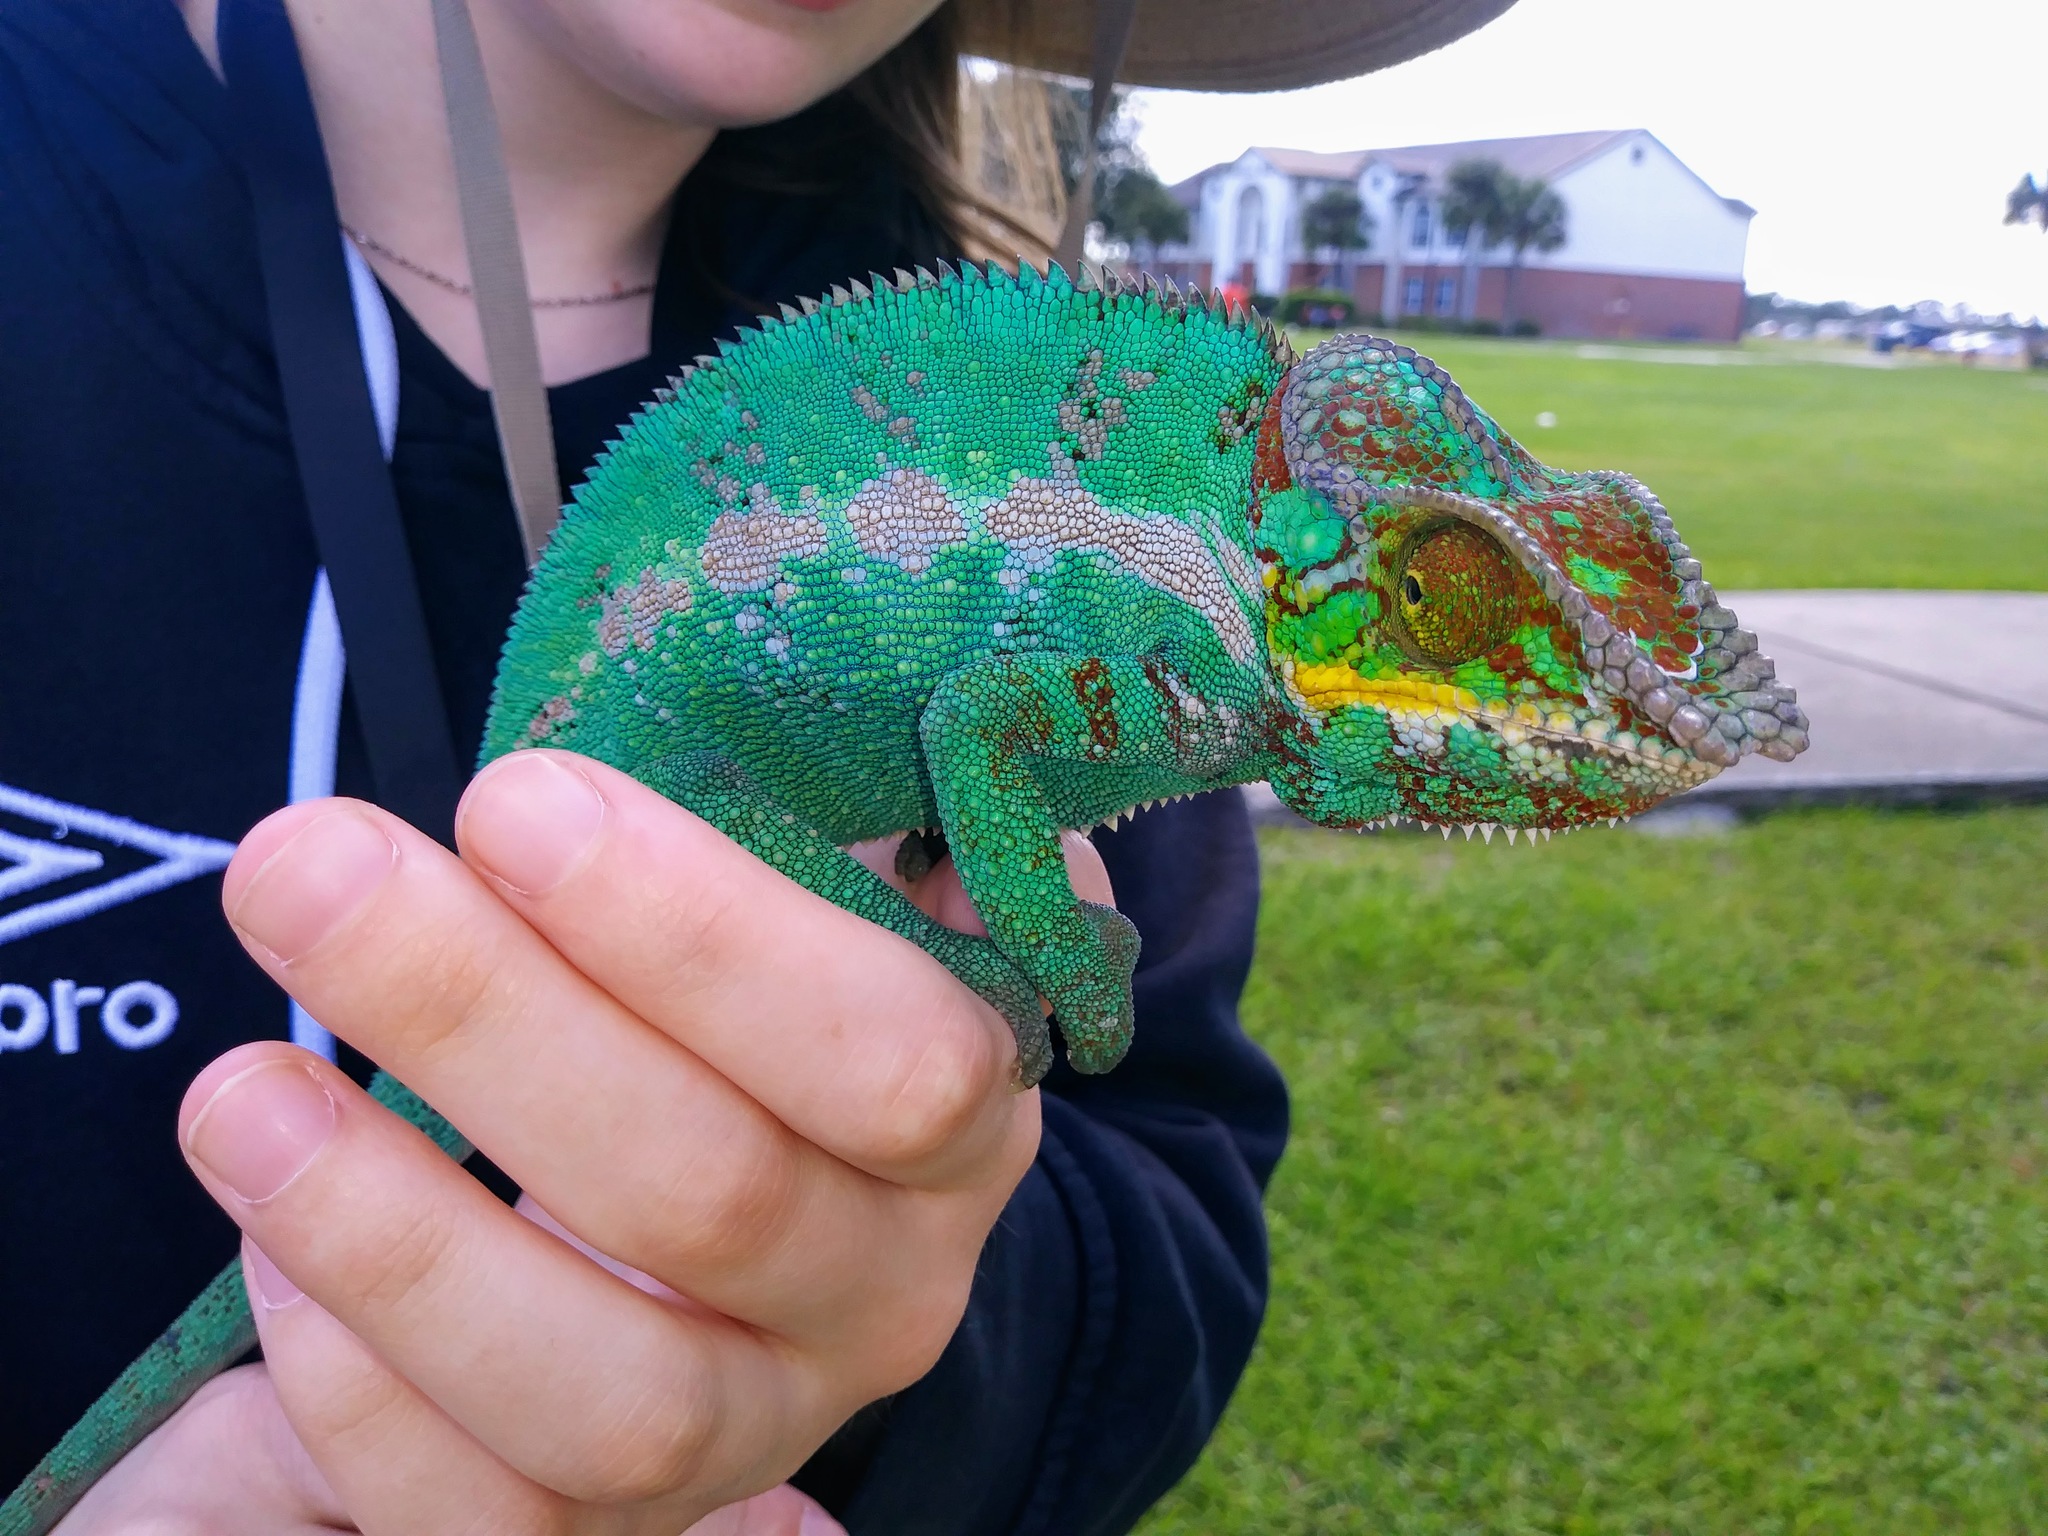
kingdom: Animalia
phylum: Chordata
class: Squamata
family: Chamaeleonidae
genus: Furcifer
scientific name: Furcifer pardalis
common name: Panther chameleon
